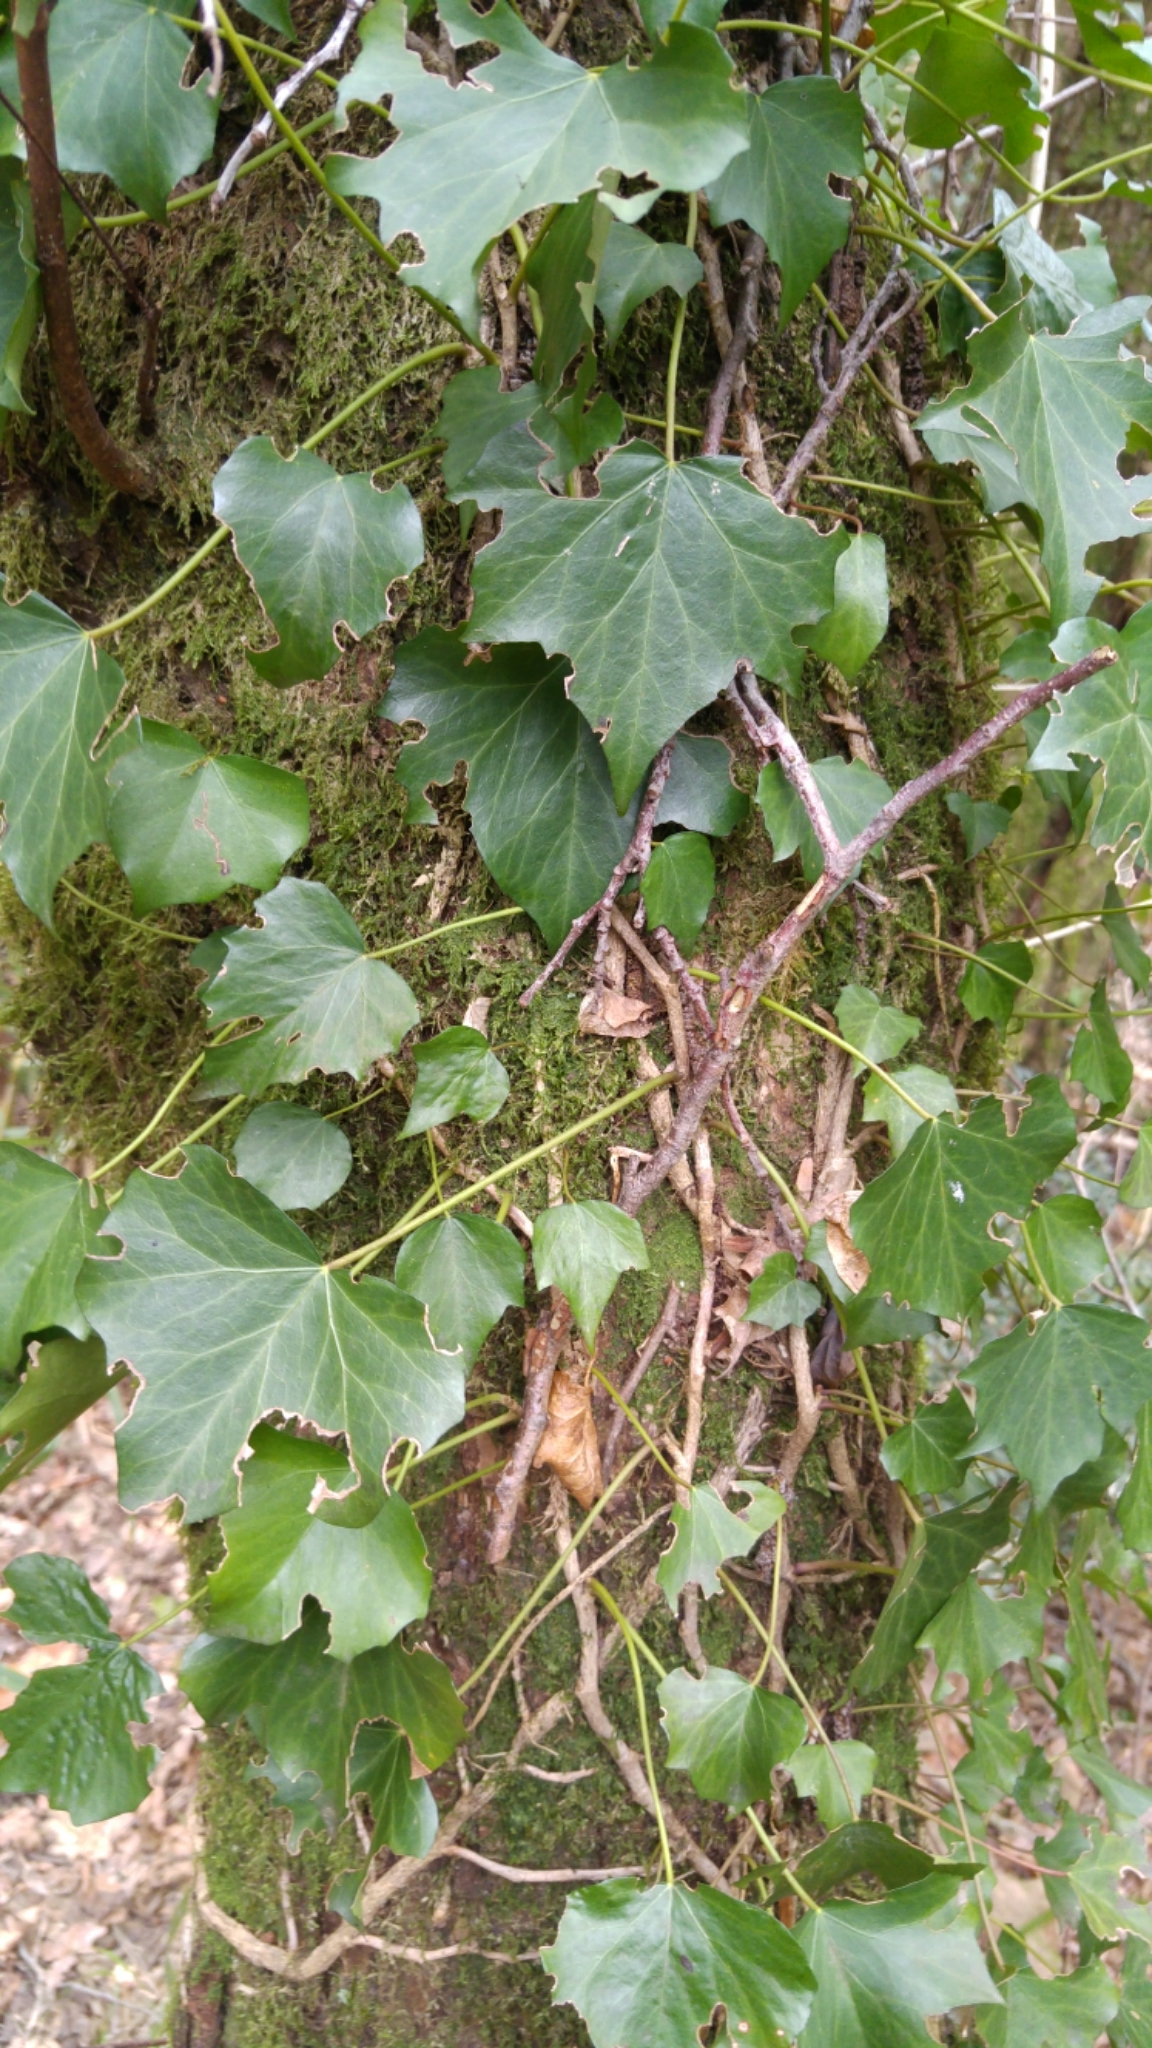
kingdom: Plantae
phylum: Tracheophyta
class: Magnoliopsida
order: Apiales
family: Araliaceae
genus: Hedera
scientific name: Hedera helix
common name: Ivy
